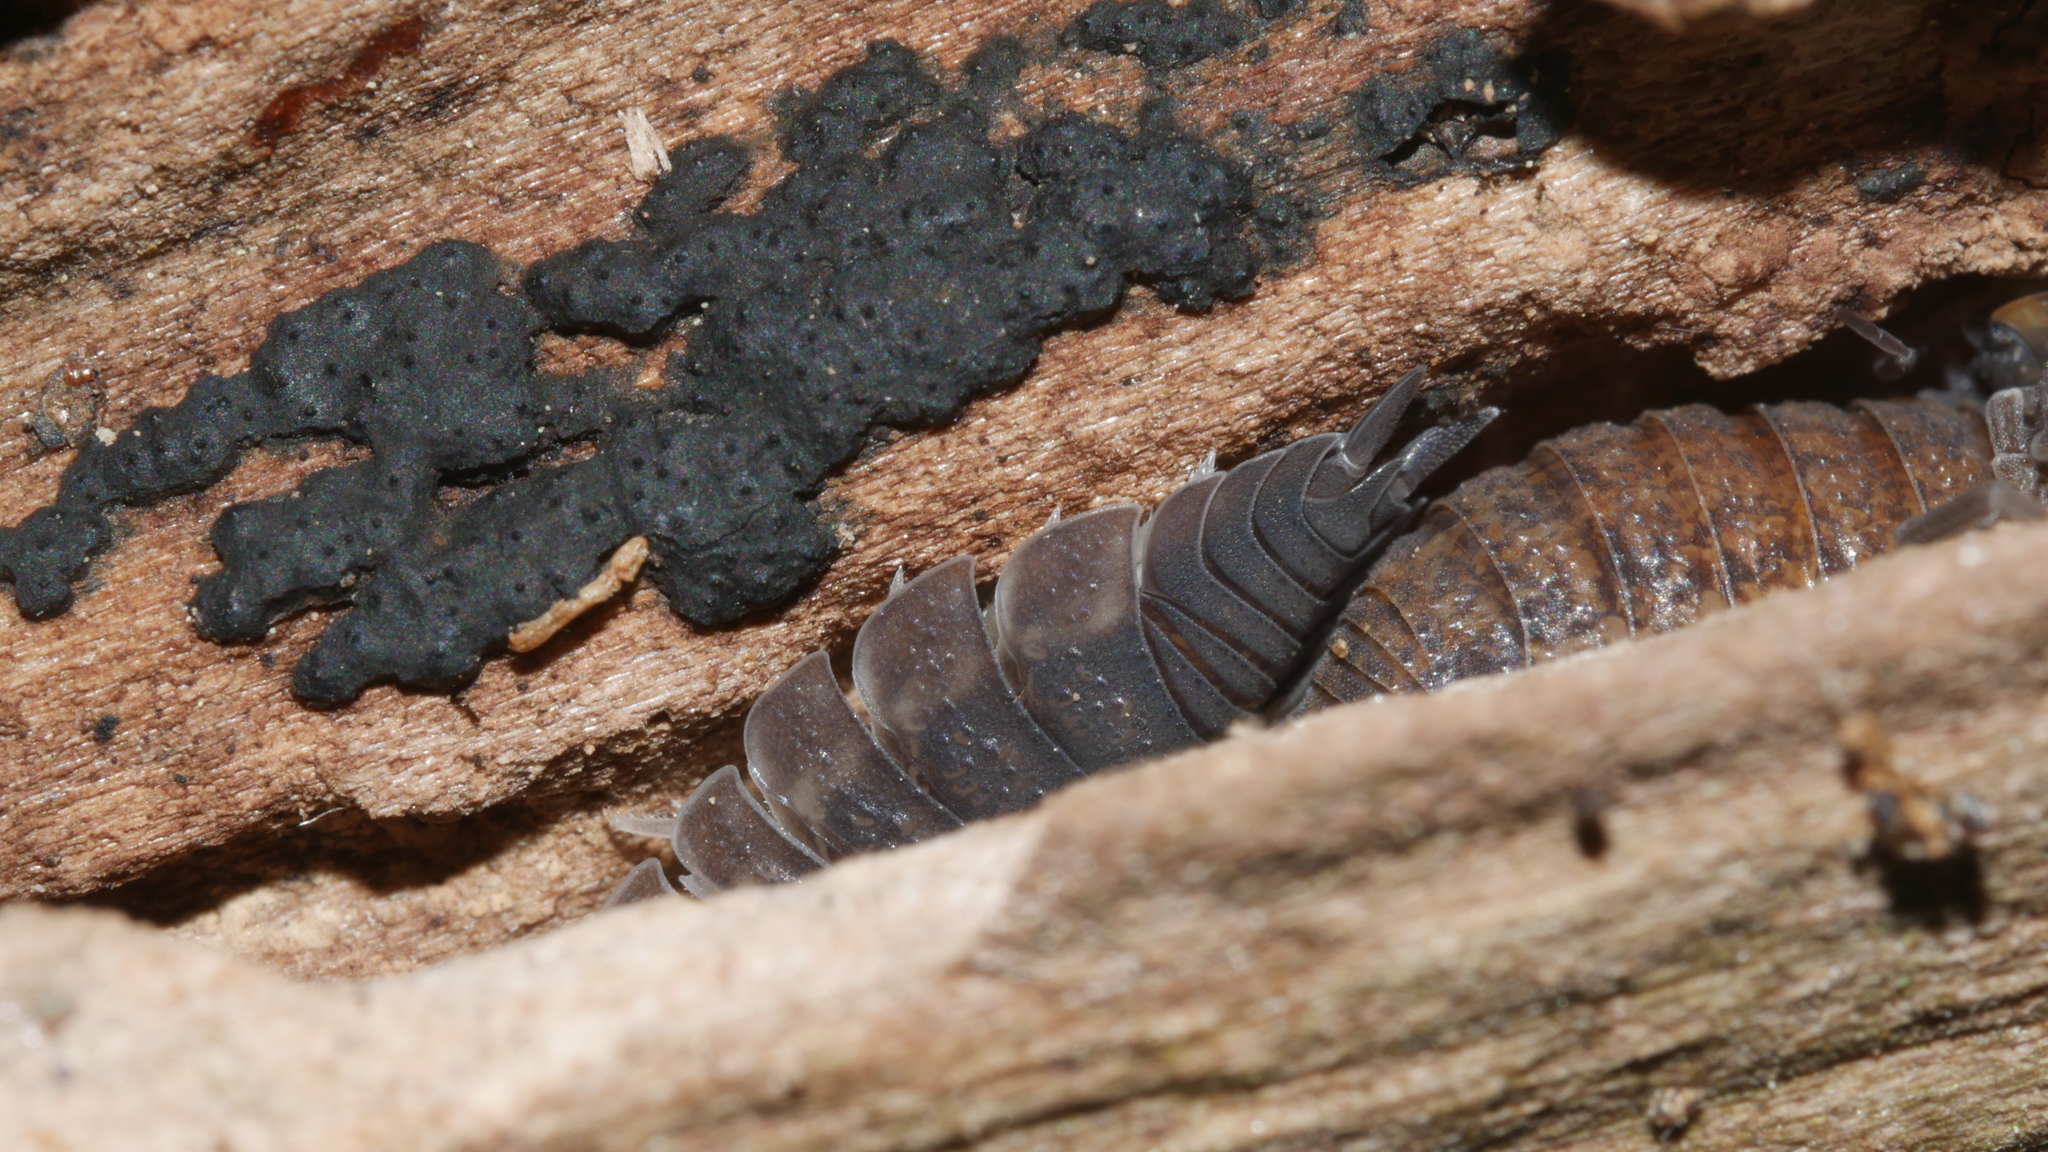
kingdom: Animalia
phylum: Arthropoda
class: Malacostraca
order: Isopoda
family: Porcellionidae
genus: Porcellio
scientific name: Porcellio scaber
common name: Common rough woodlouse
